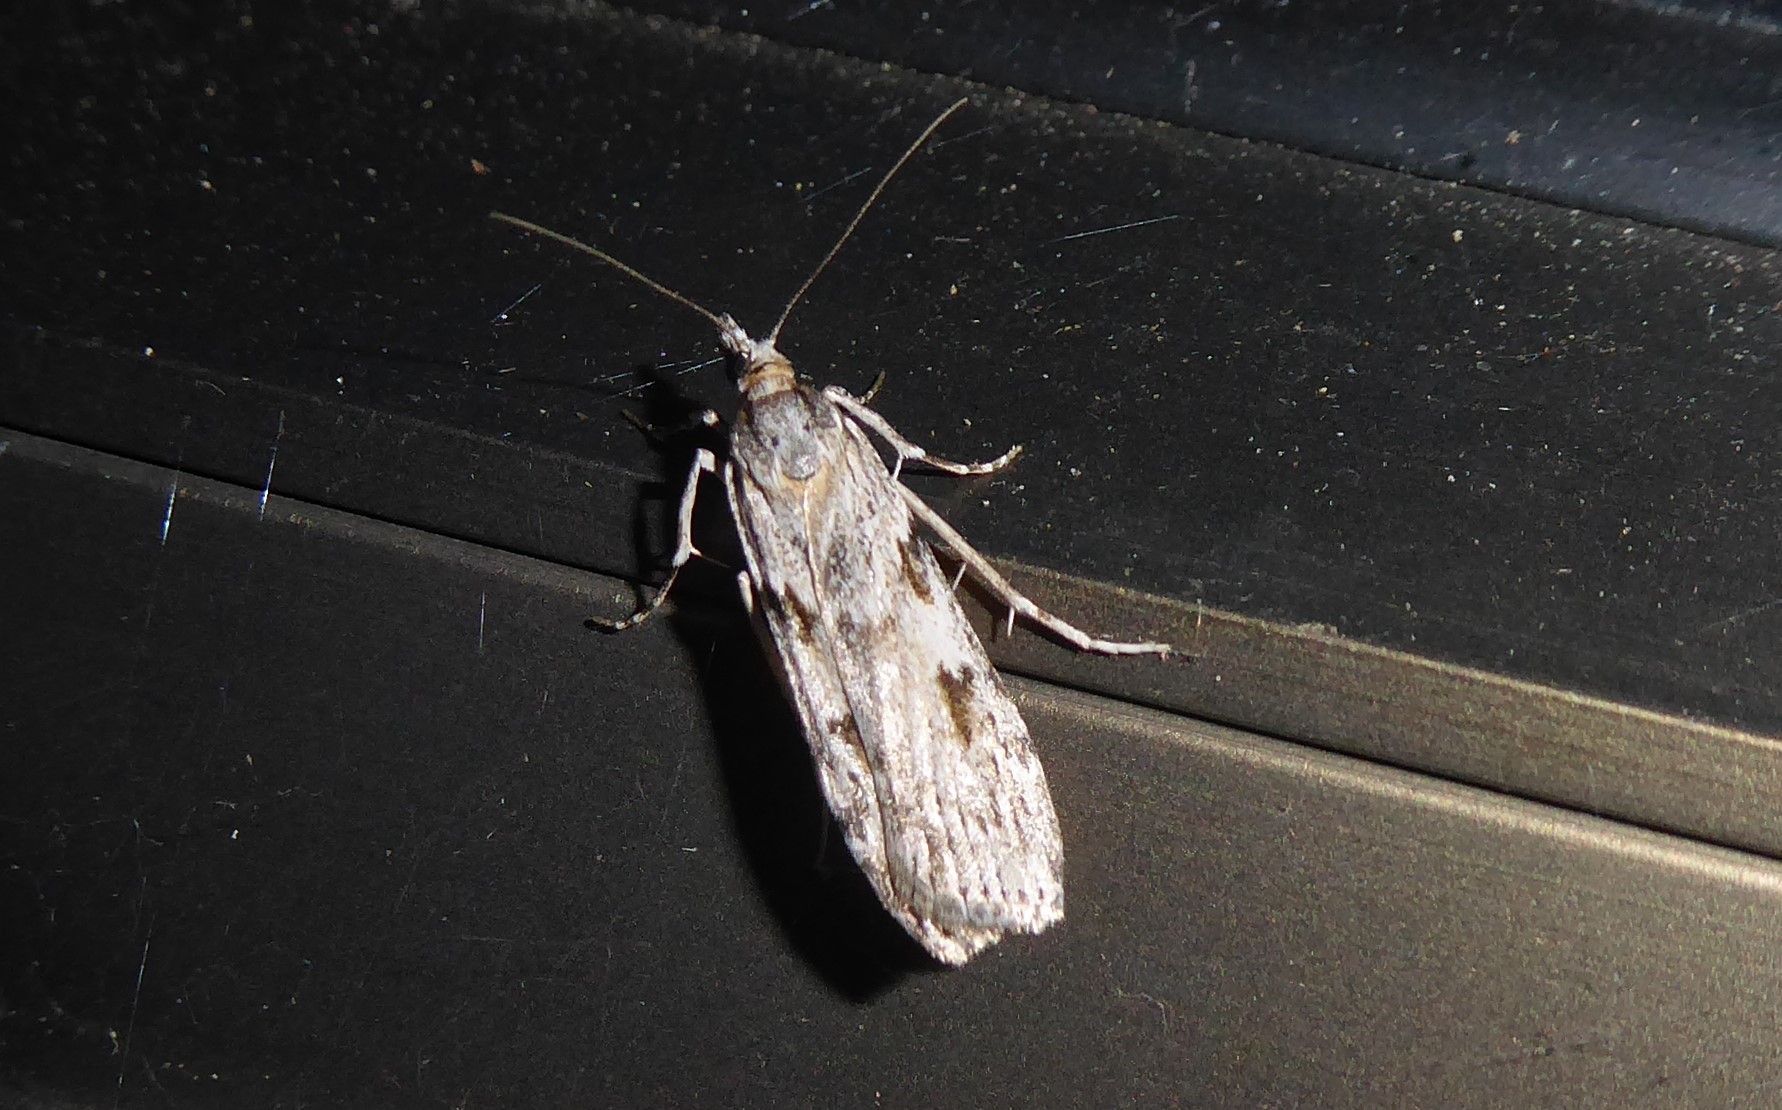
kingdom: Animalia
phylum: Arthropoda
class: Insecta
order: Lepidoptera
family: Crambidae
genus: Scoparia
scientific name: Scoparia halopis
